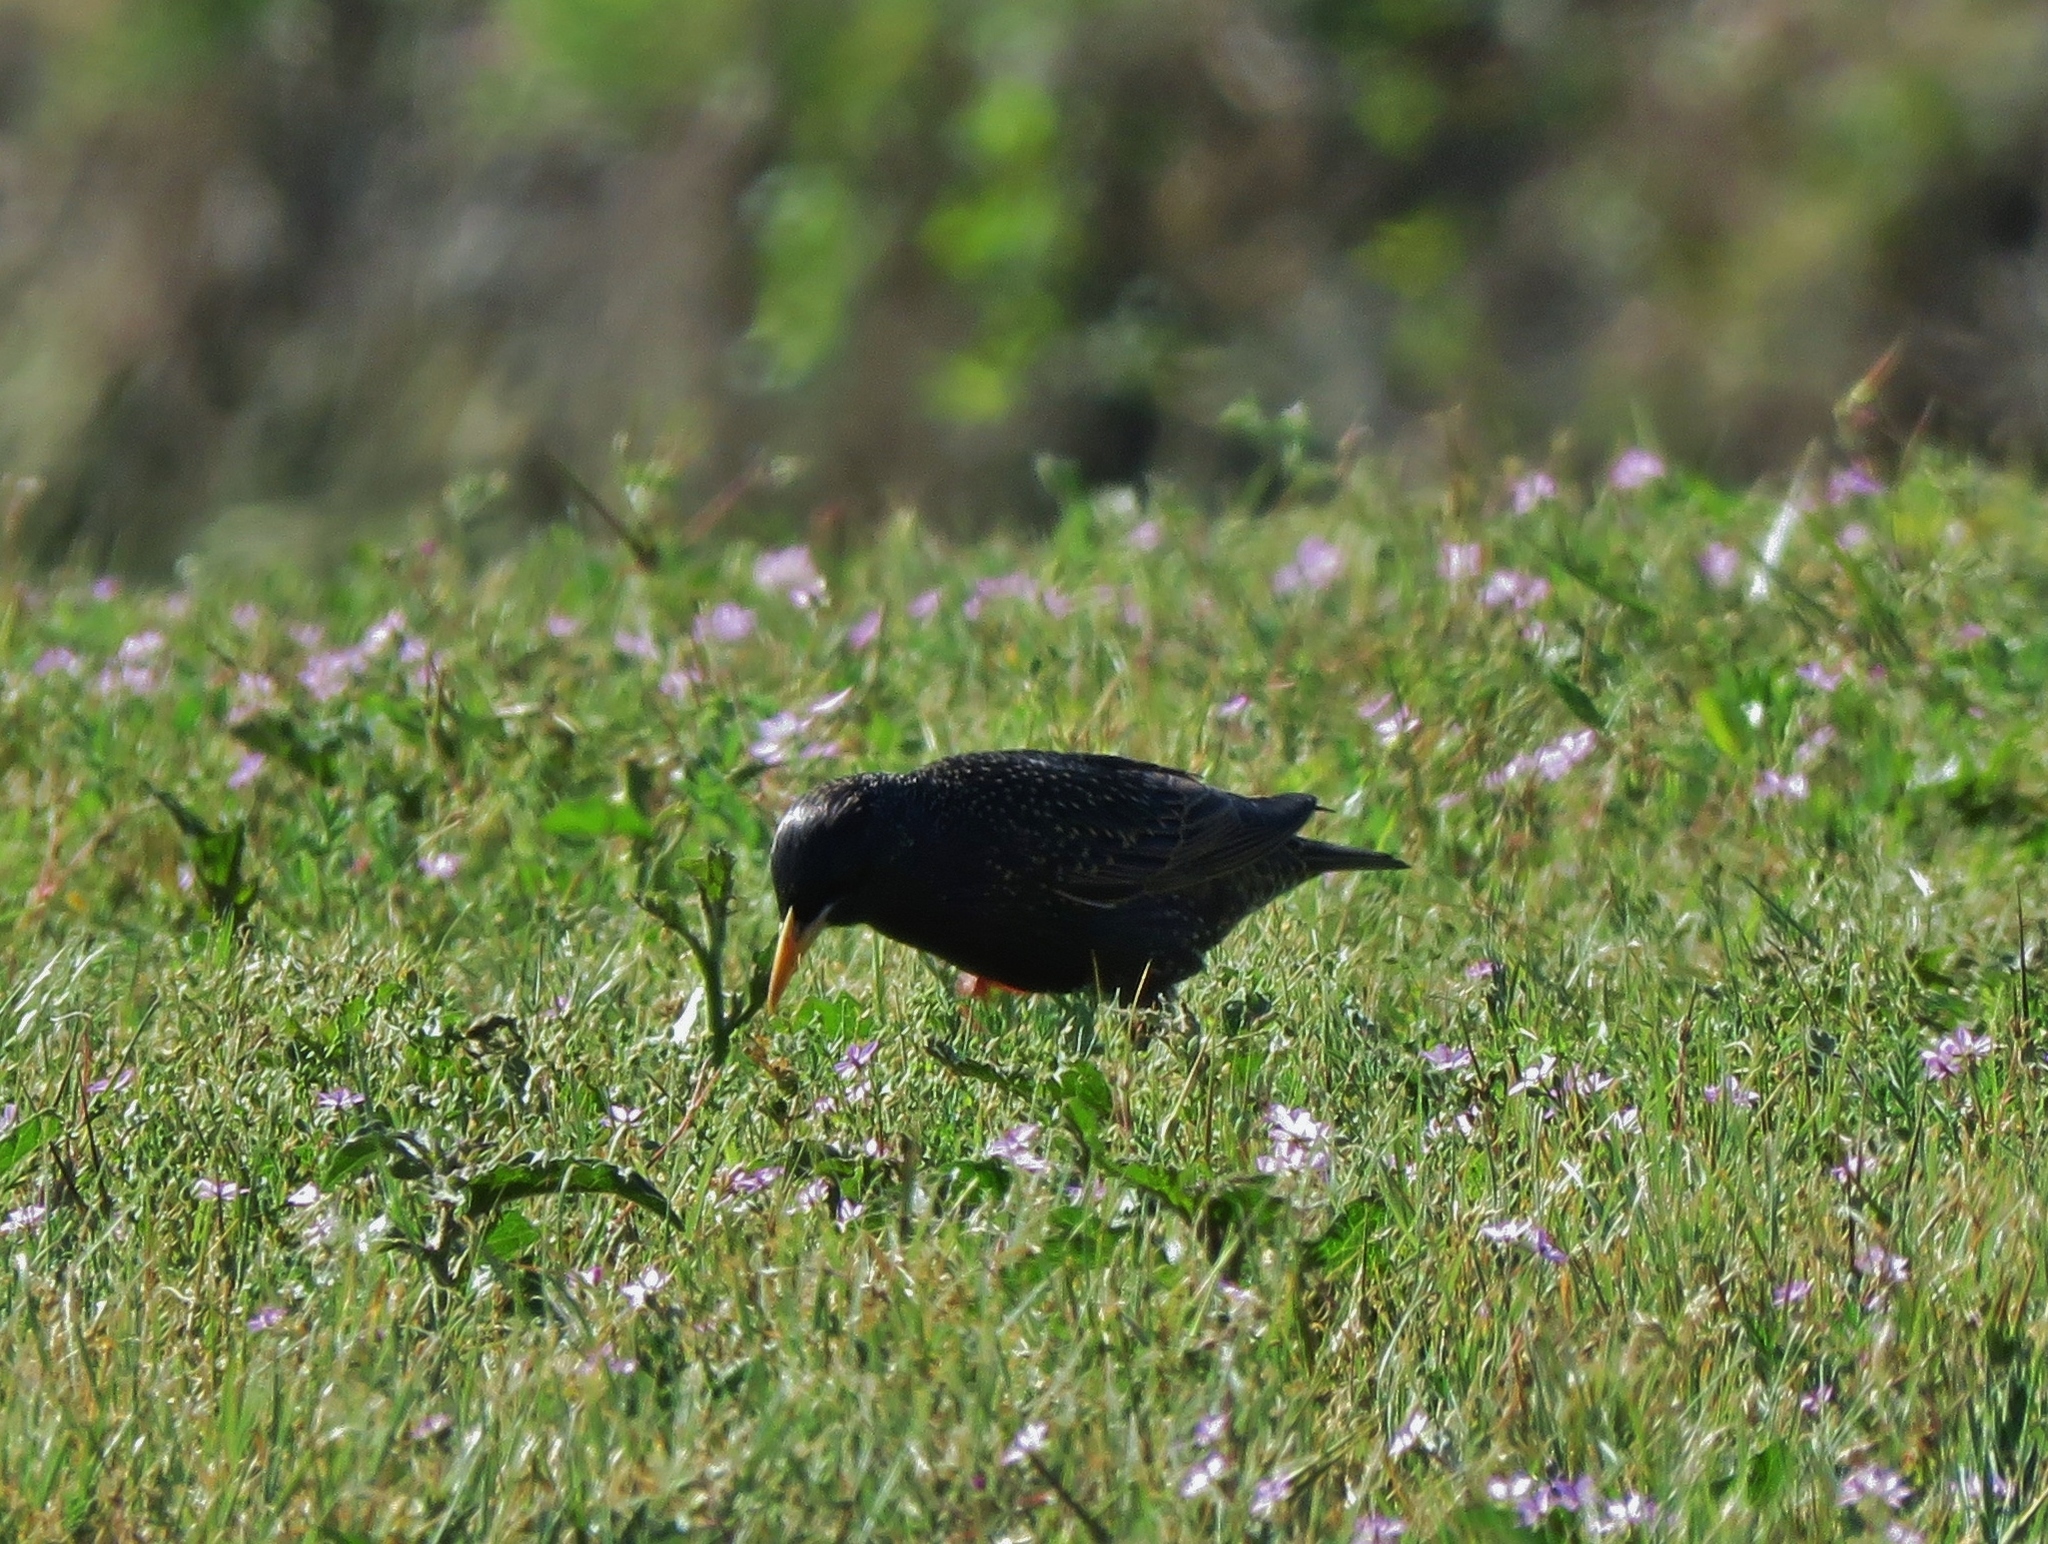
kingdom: Animalia
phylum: Chordata
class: Aves
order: Passeriformes
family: Sturnidae
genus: Sturnus
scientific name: Sturnus vulgaris
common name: Common starling
